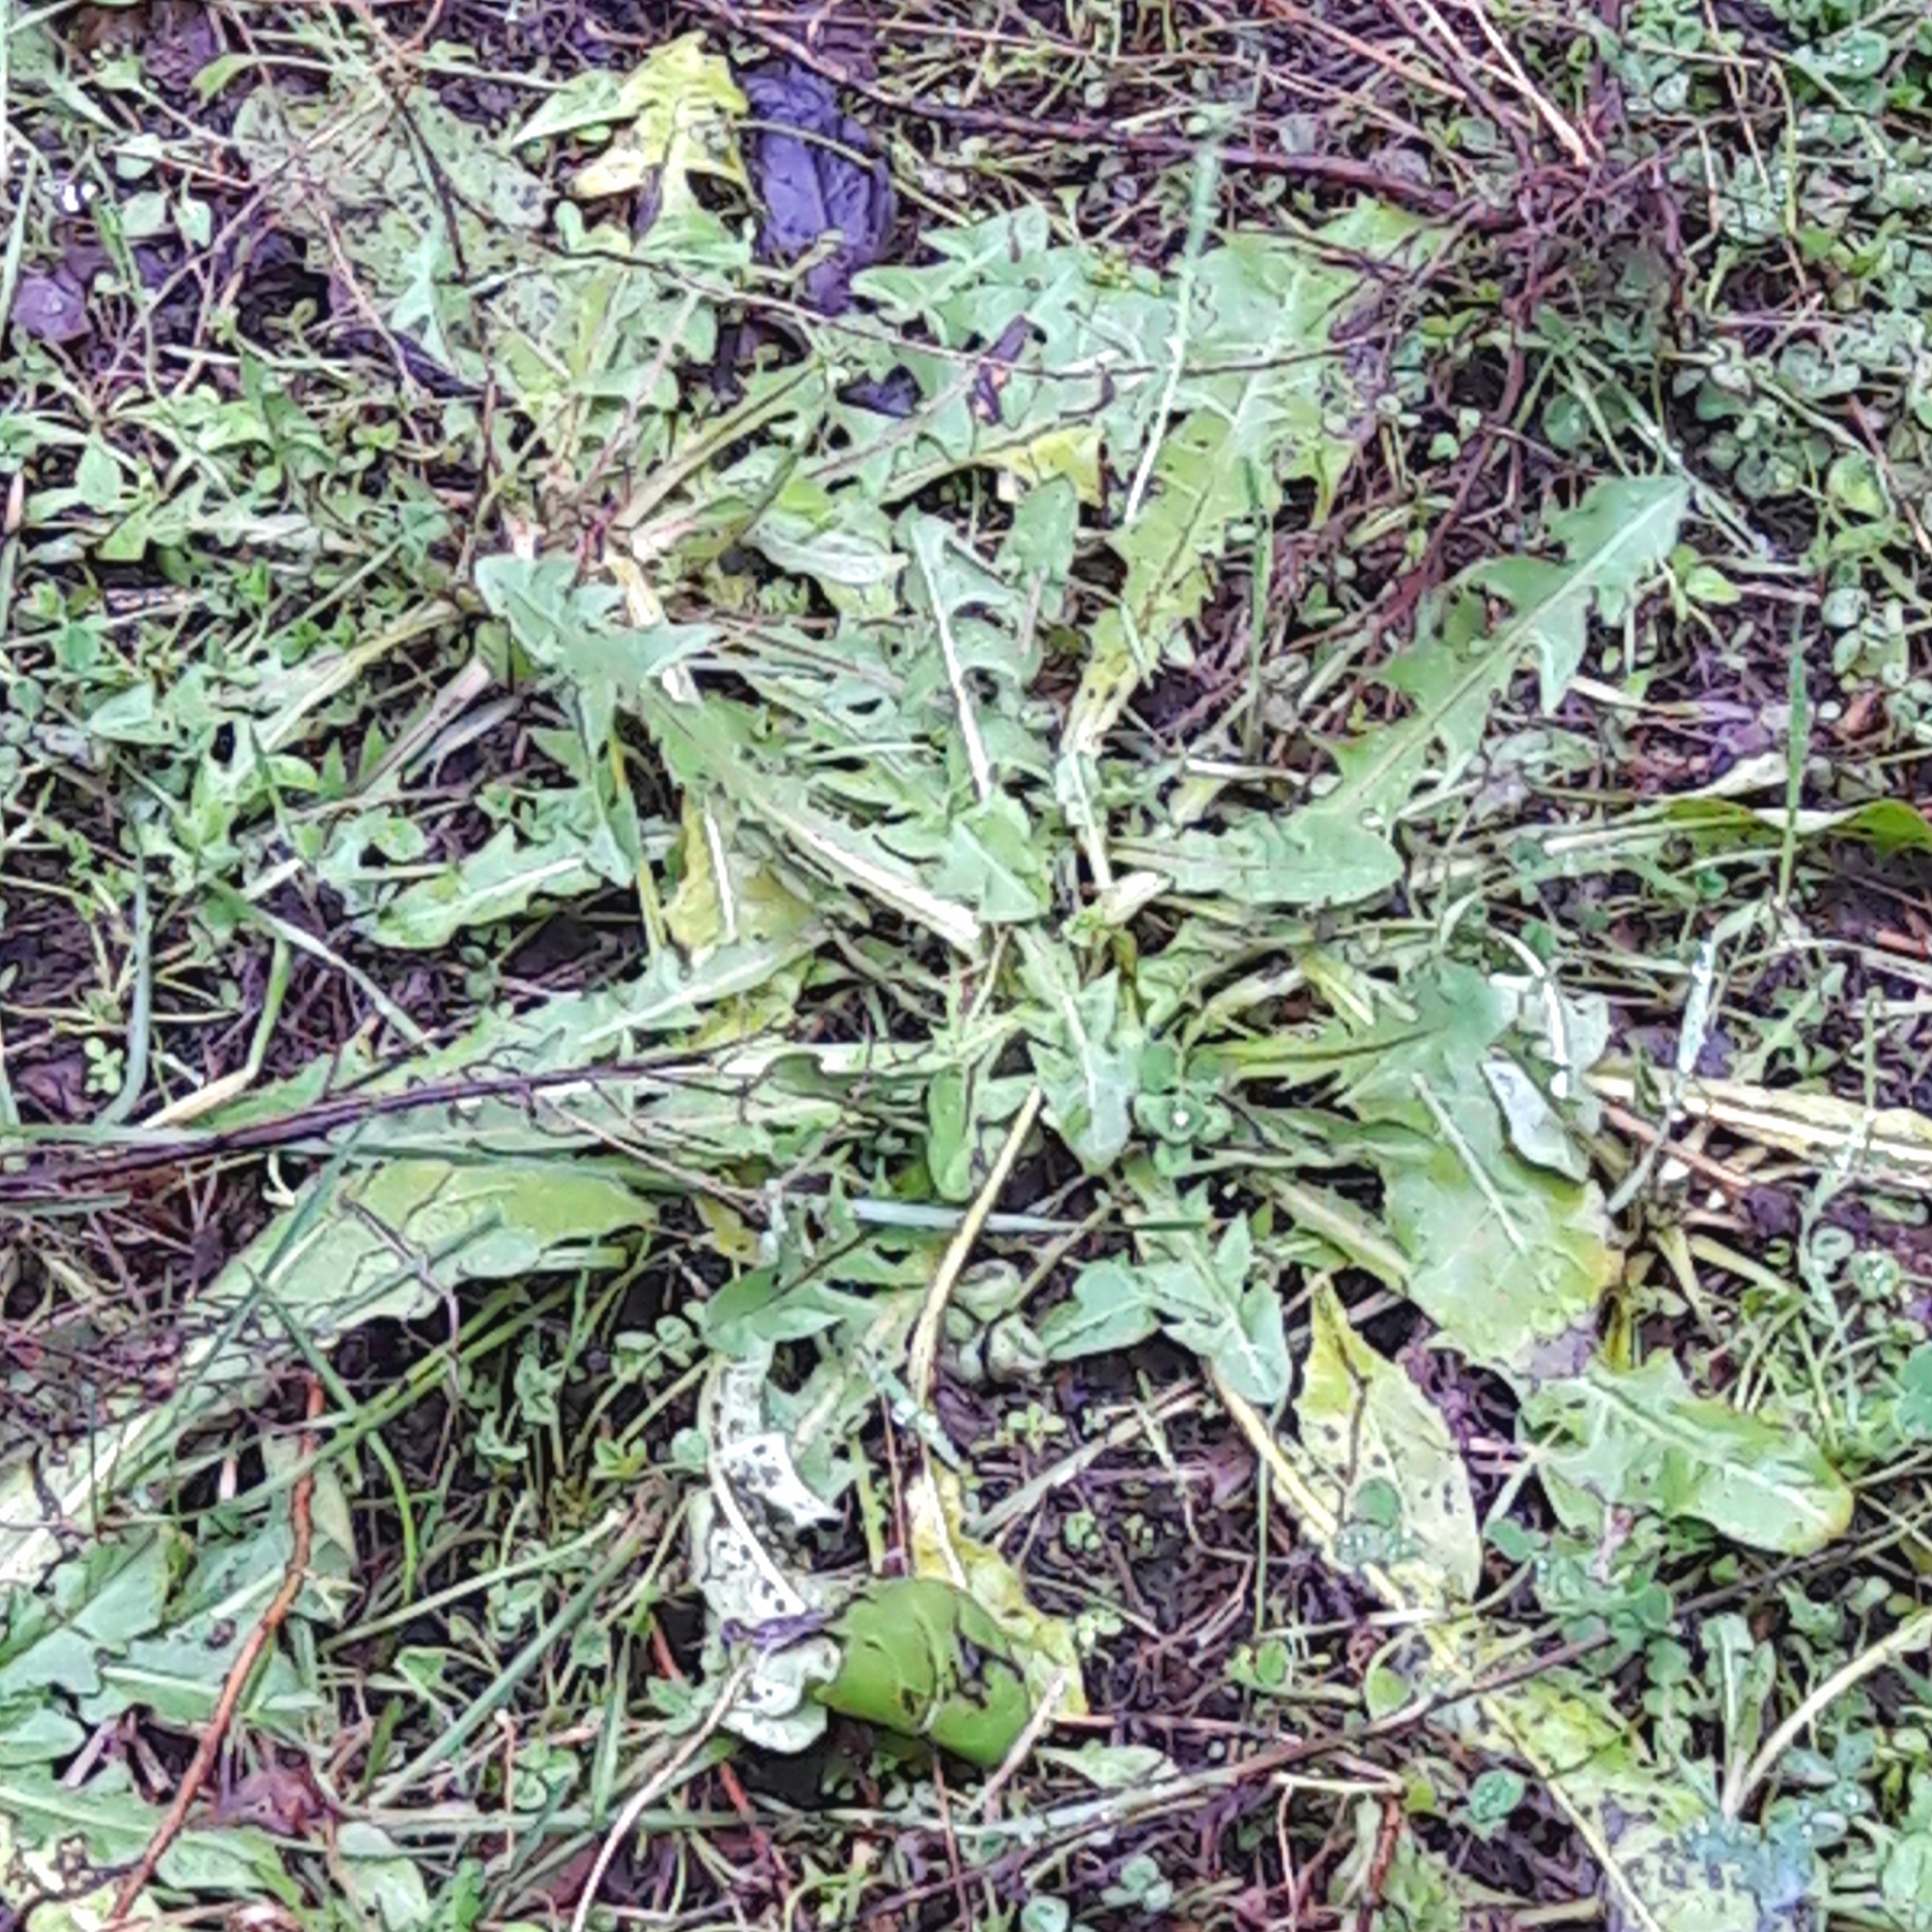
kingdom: Plantae
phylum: Tracheophyta
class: Magnoliopsida
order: Asterales
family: Asteraceae
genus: Taraxacum
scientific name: Taraxacum officinale
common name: Common dandelion
